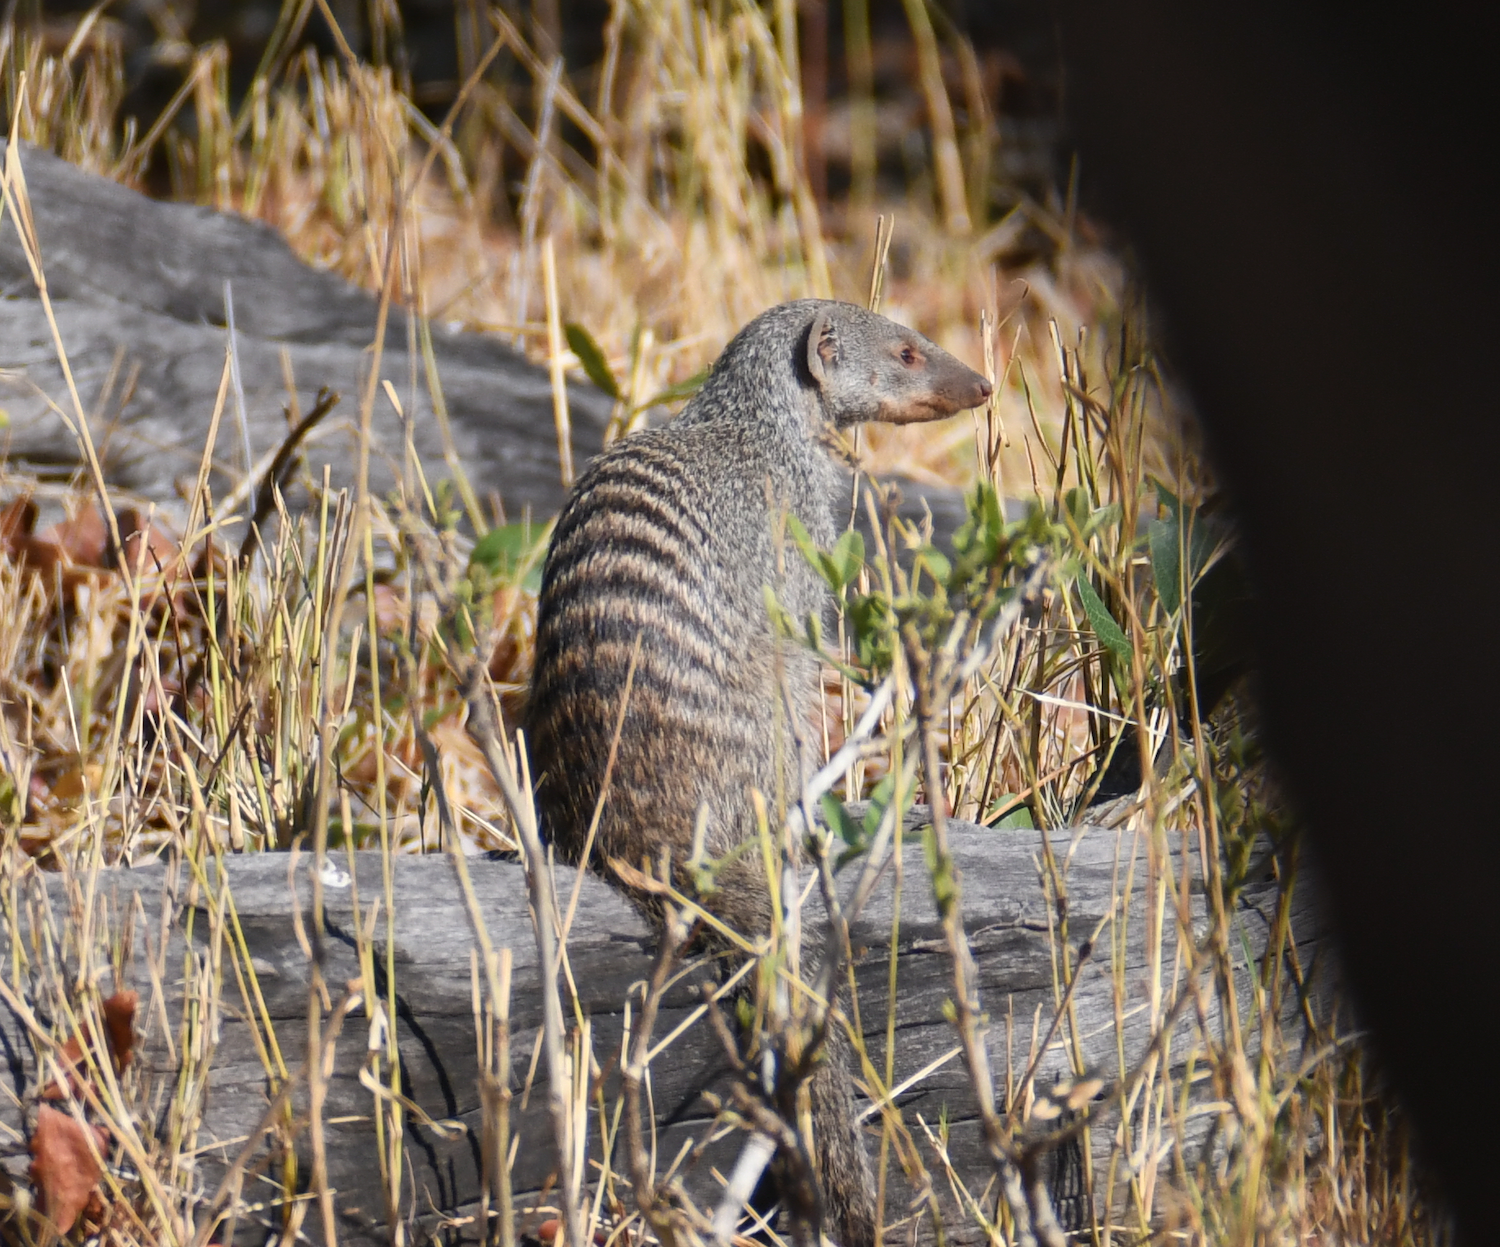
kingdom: Animalia
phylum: Chordata
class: Mammalia
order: Carnivora
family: Herpestidae
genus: Mungos
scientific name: Mungos mungo
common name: Banded mongoose
